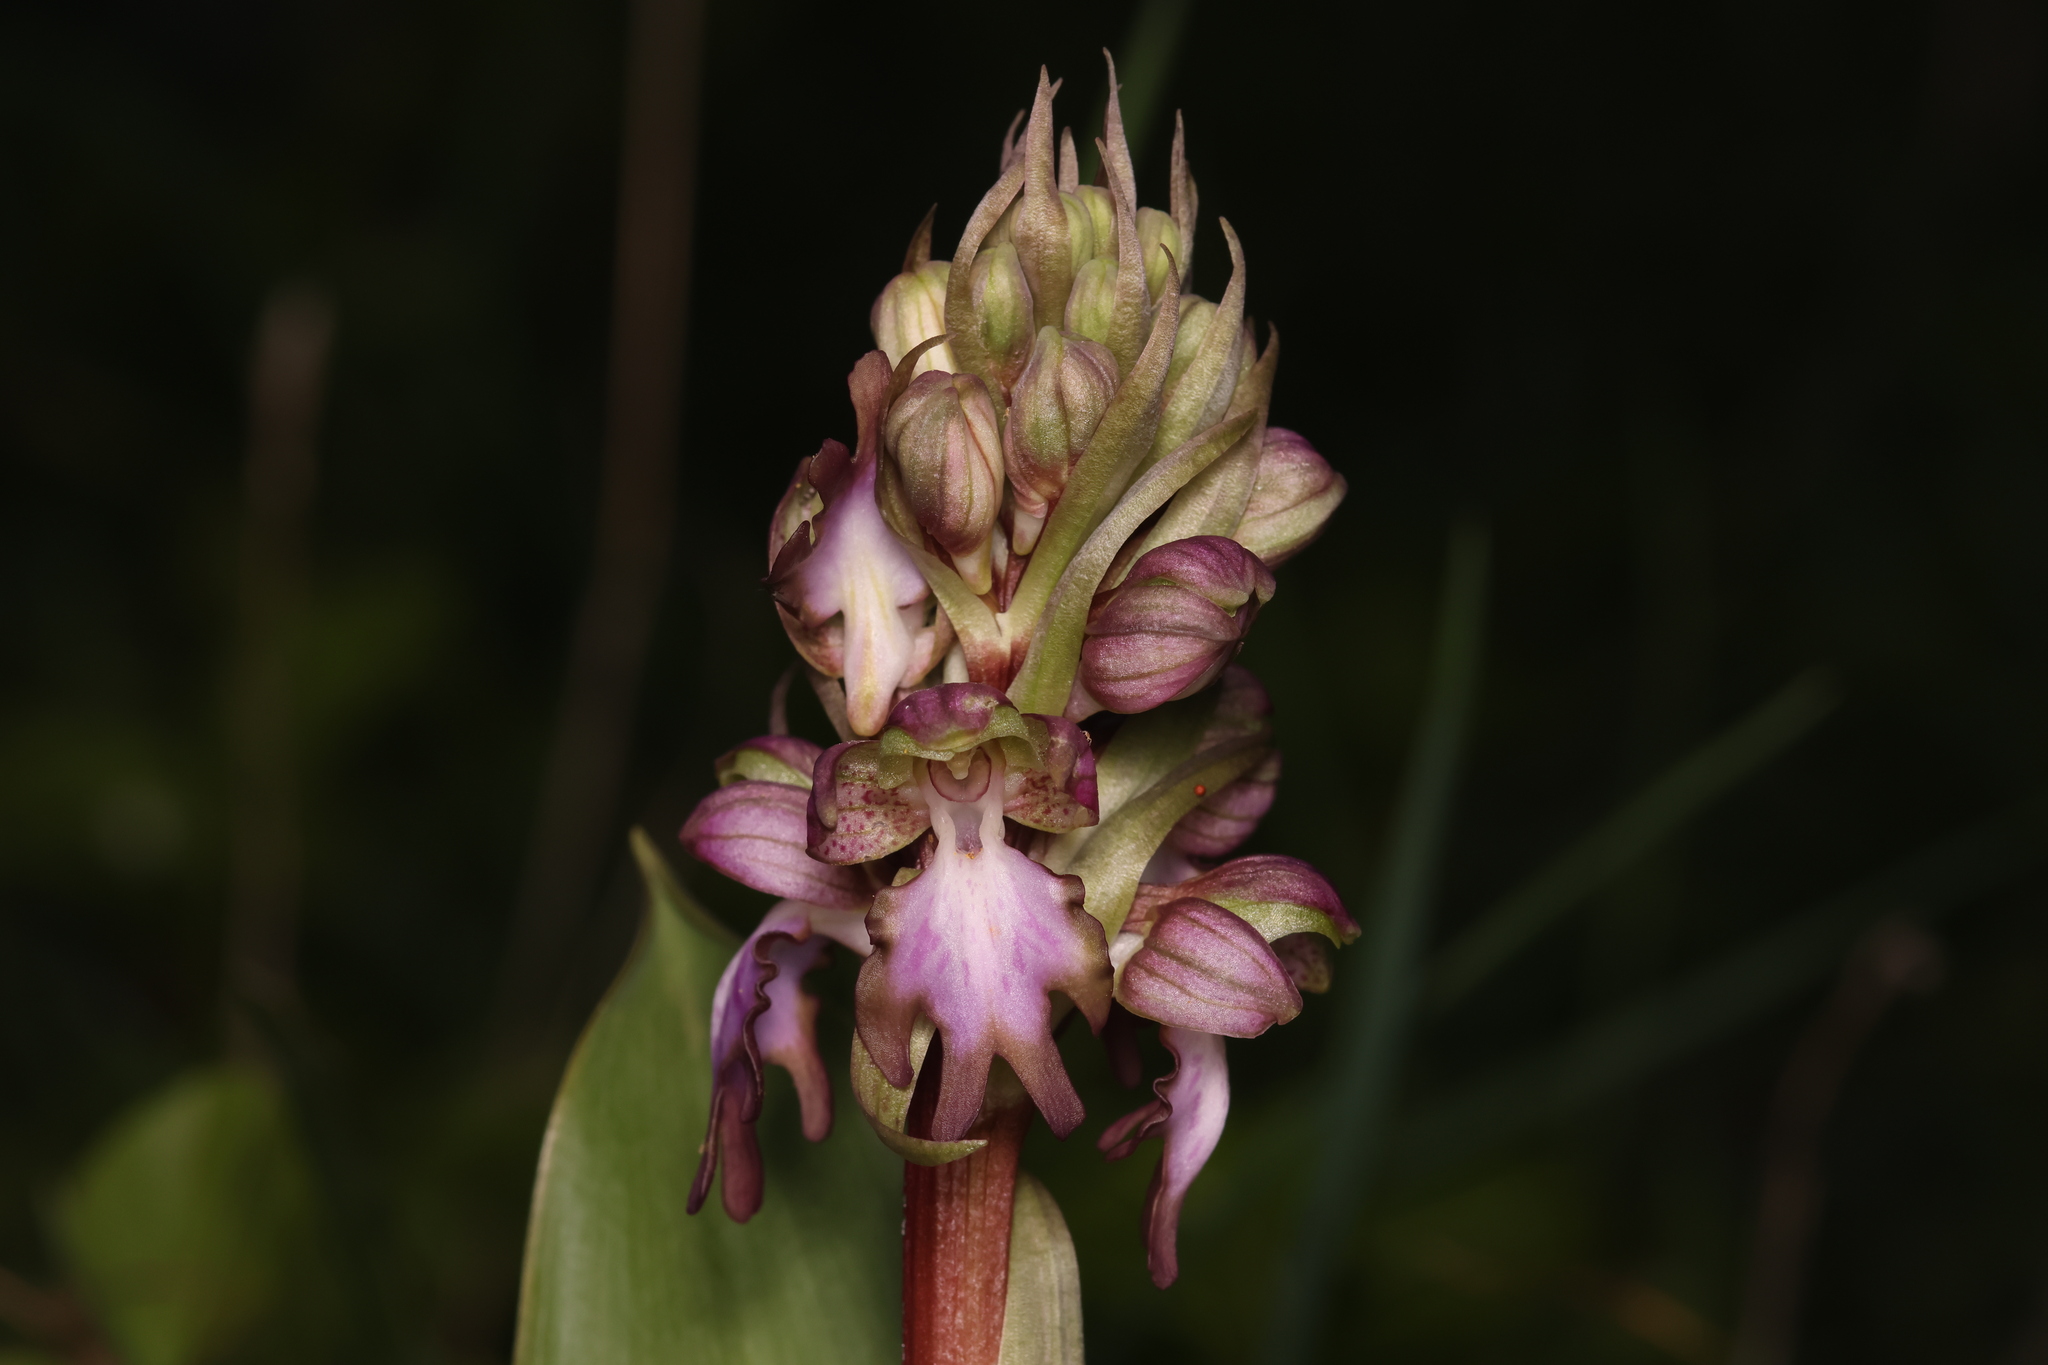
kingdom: Plantae
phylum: Tracheophyta
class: Liliopsida
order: Asparagales
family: Orchidaceae
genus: Himantoglossum
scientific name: Himantoglossum robertianum
